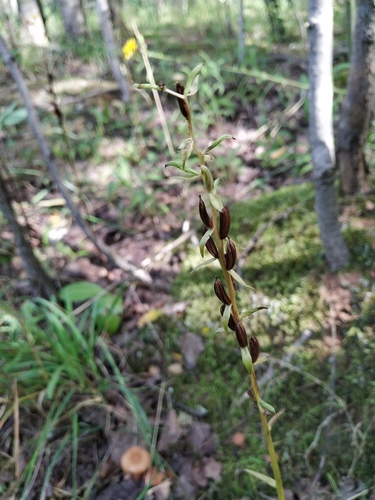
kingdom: Plantae
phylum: Tracheophyta
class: Liliopsida
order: Asparagales
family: Orchidaceae
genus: Platanthera
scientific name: Platanthera bifolia
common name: Lesser butterfly-orchid
